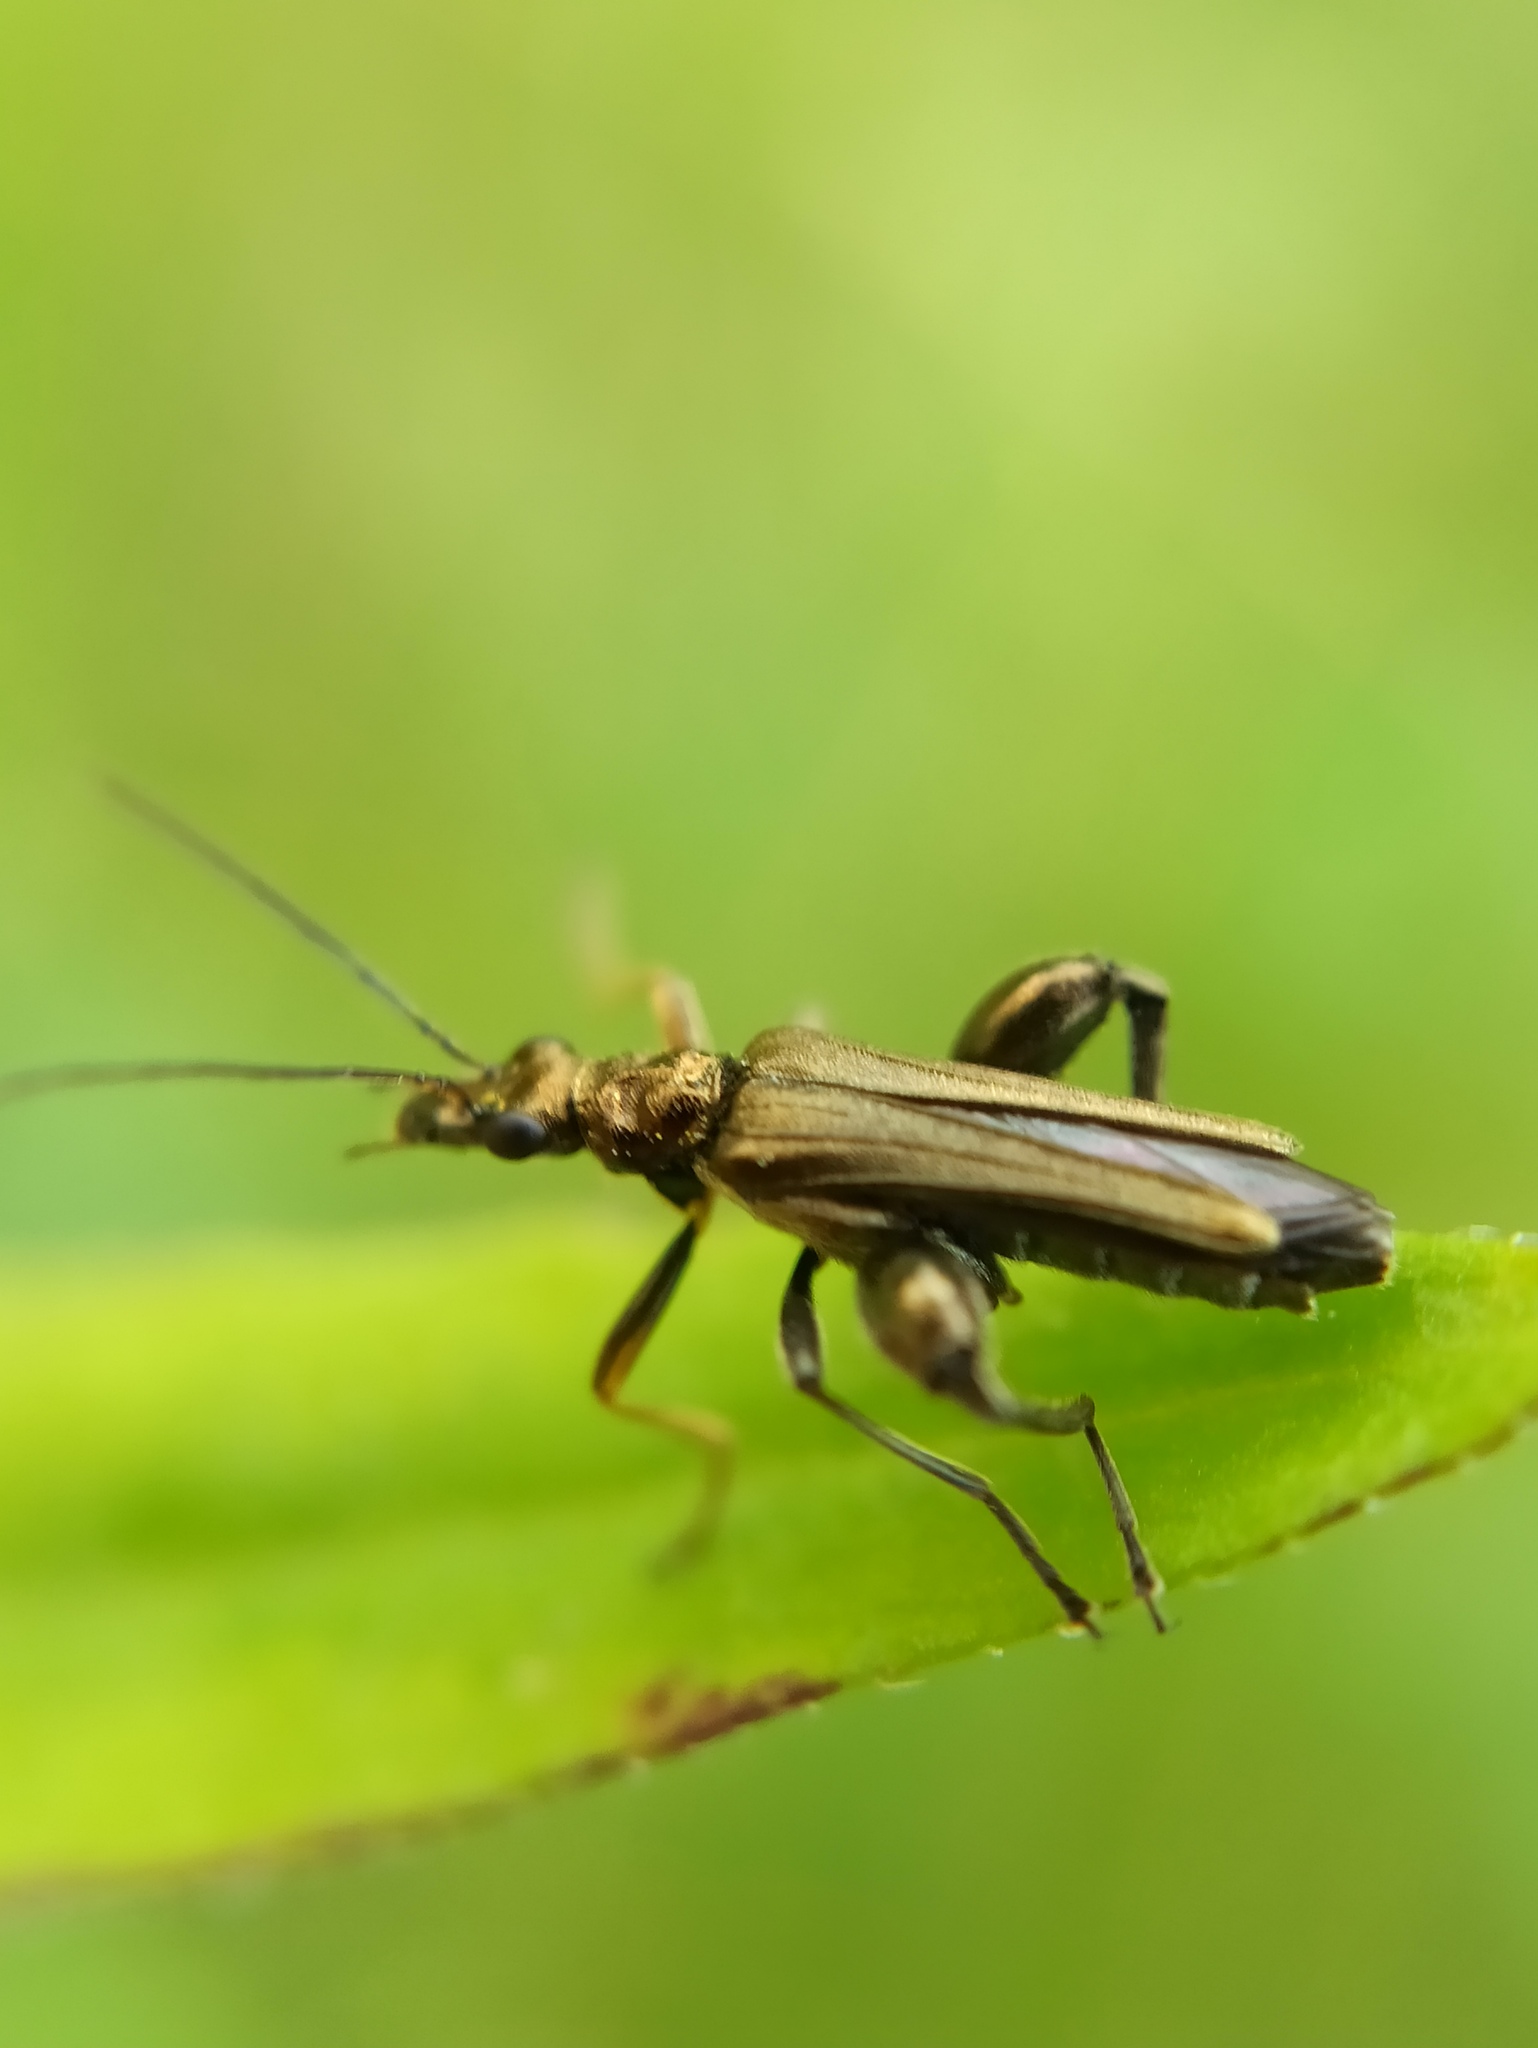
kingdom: Animalia
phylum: Arthropoda
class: Insecta
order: Coleoptera
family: Oedemeridae
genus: Oedemera
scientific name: Oedemera flavipes
